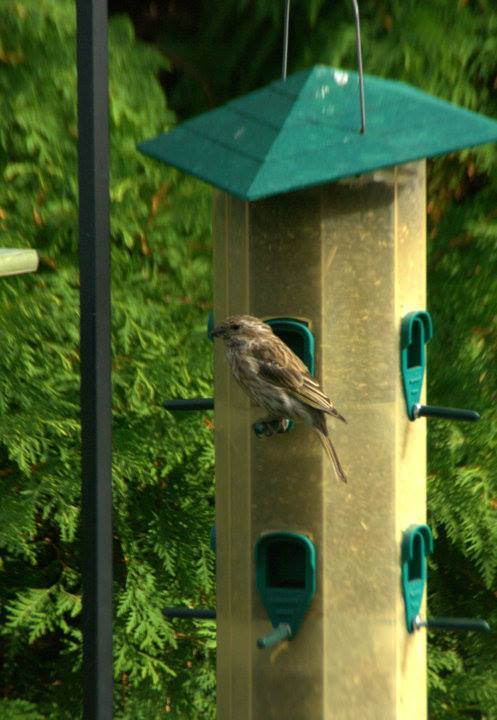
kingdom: Animalia
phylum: Chordata
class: Aves
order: Passeriformes
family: Fringillidae
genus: Haemorhous
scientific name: Haemorhous purpureus
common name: Purple finch
